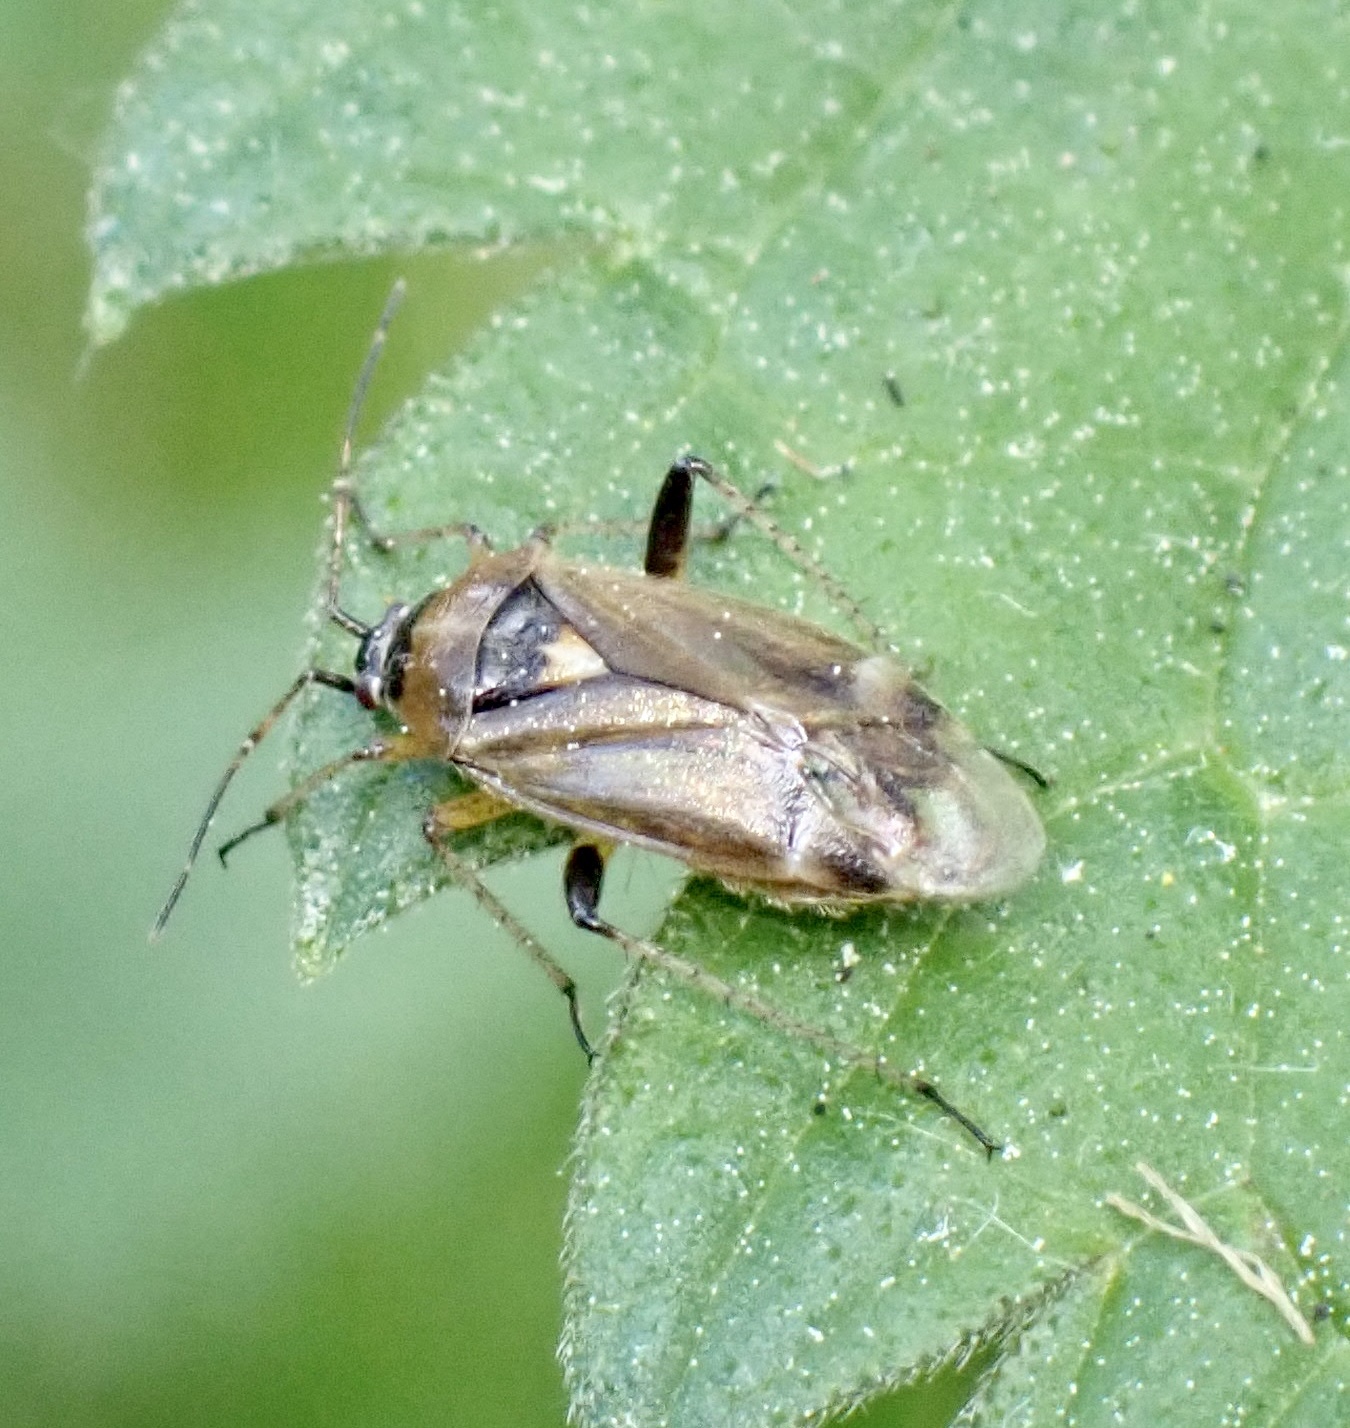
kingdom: Animalia
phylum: Arthropoda
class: Insecta
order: Hemiptera
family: Miridae
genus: Harpocera
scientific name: Harpocera thoracica
